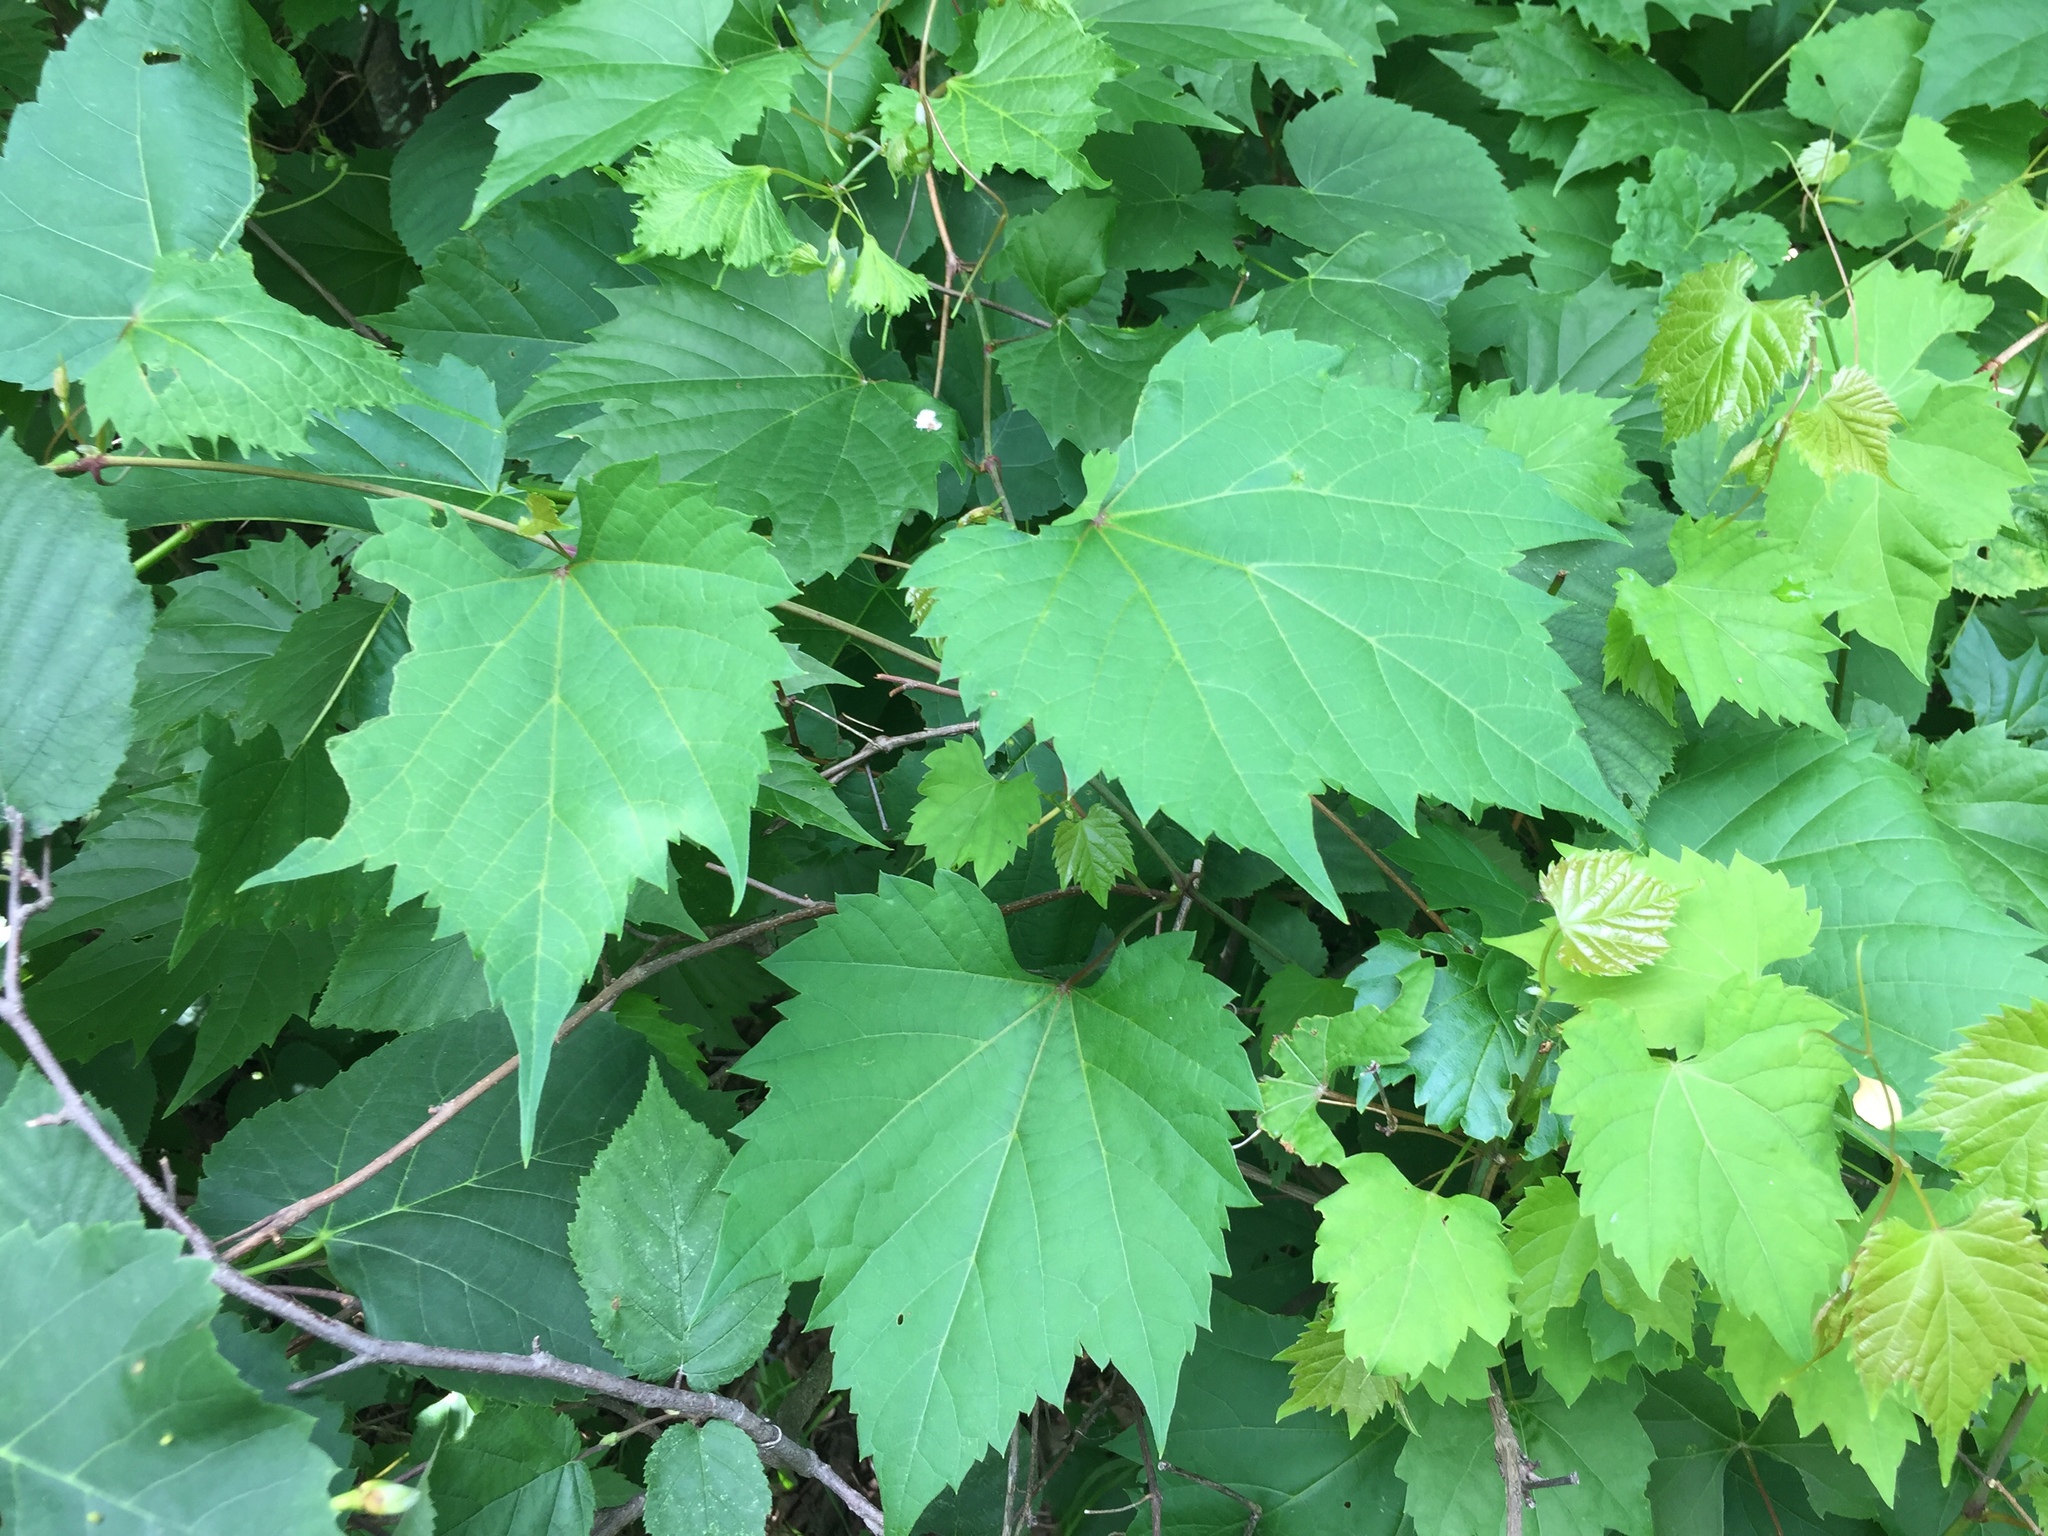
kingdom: Plantae
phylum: Tracheophyta
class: Magnoliopsida
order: Vitales
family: Vitaceae
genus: Vitis
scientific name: Vitis riparia
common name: Frost grape
